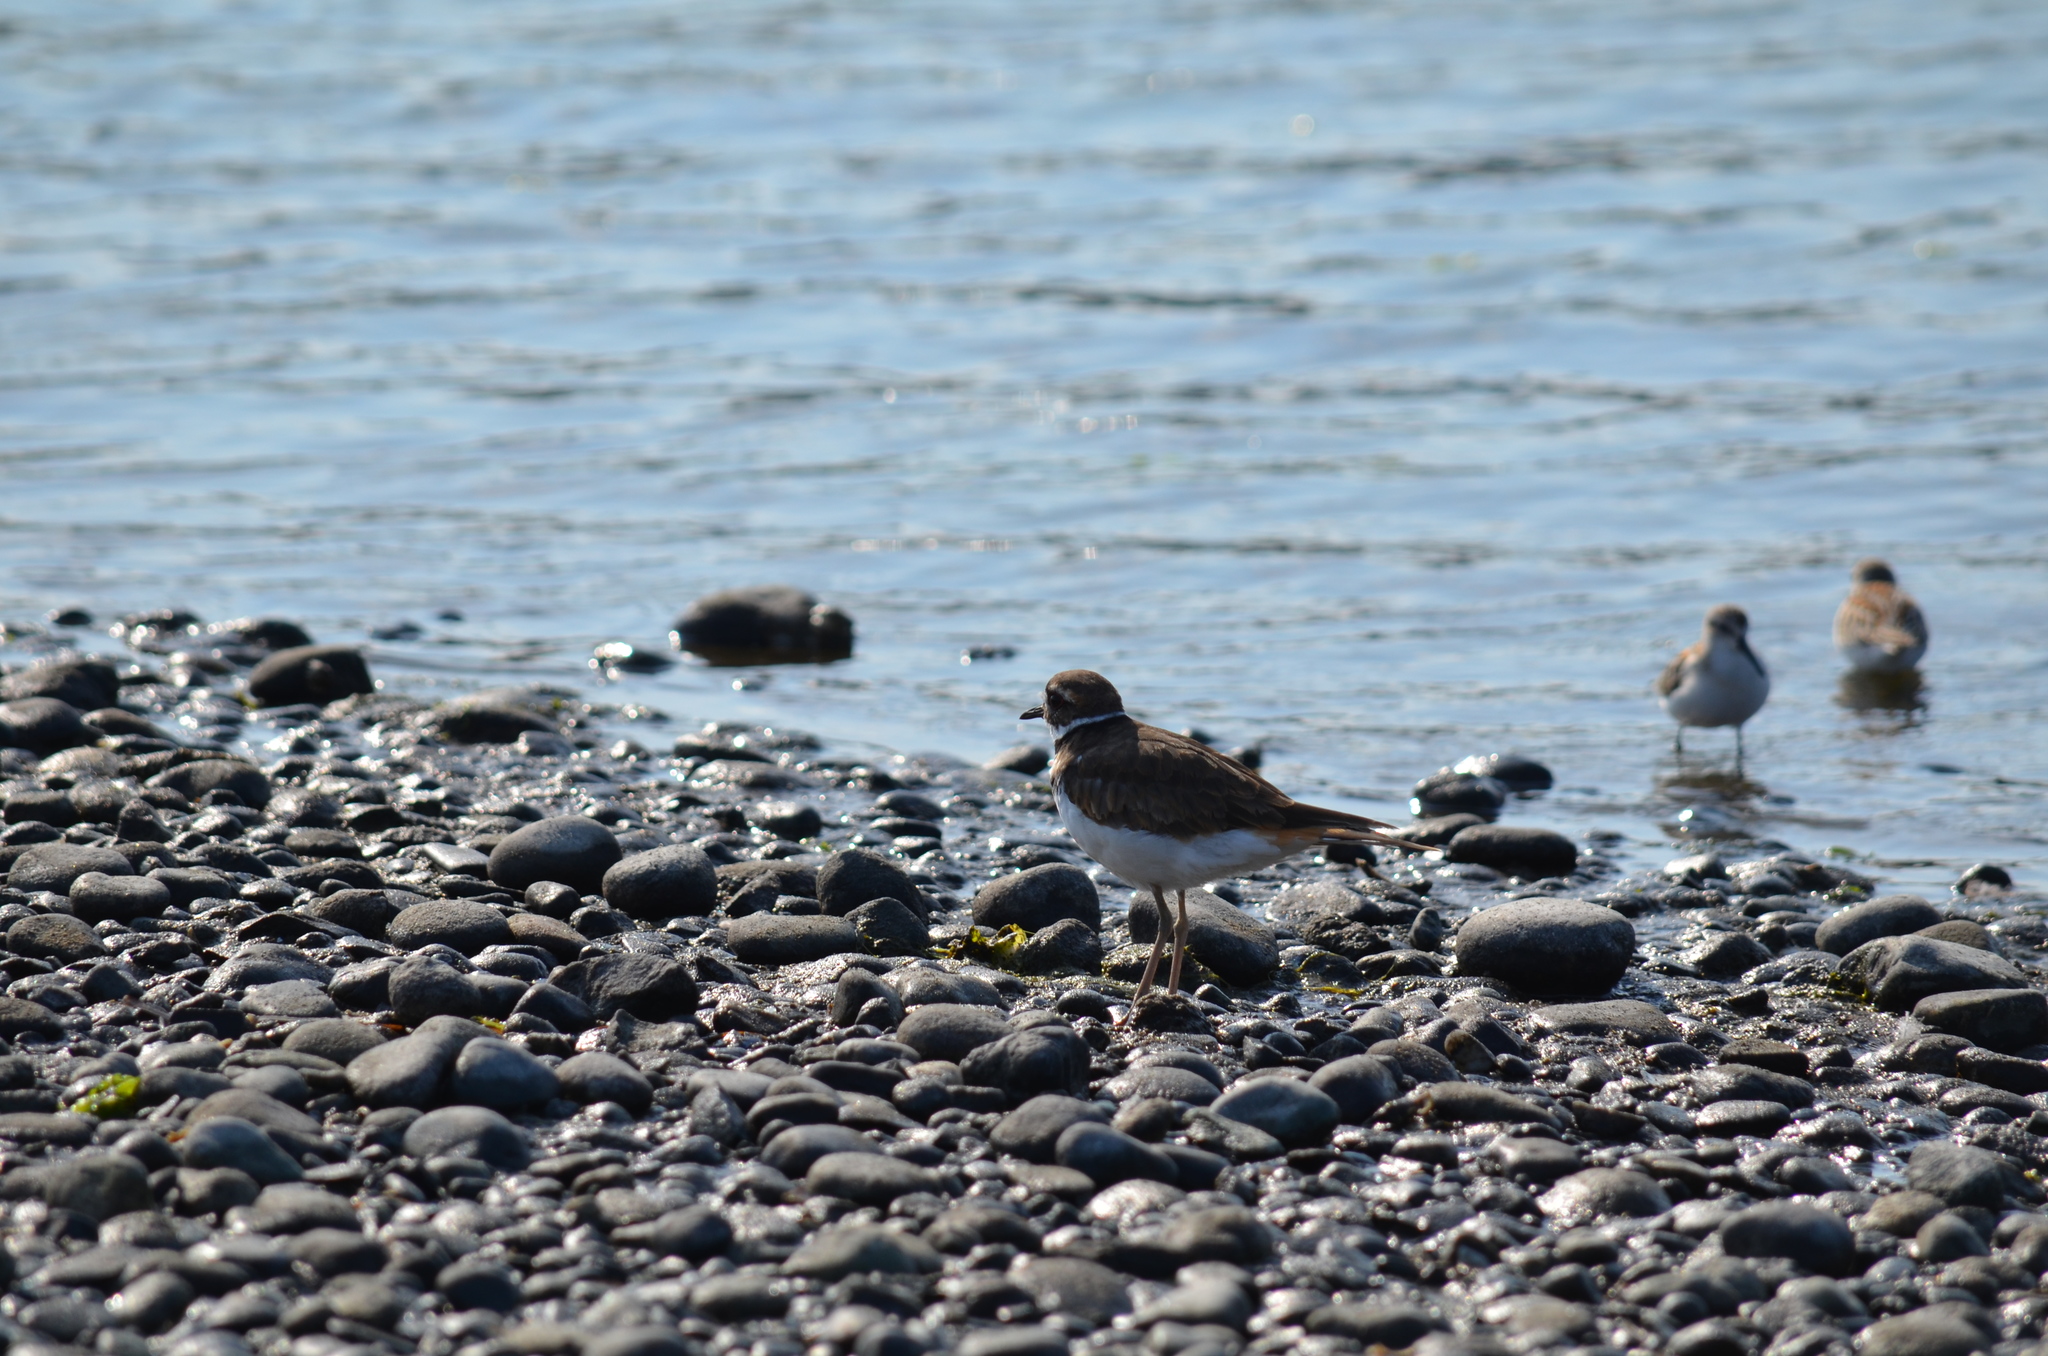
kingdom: Animalia
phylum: Chordata
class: Aves
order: Charadriiformes
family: Charadriidae
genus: Charadrius
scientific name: Charadrius vociferus
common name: Killdeer
